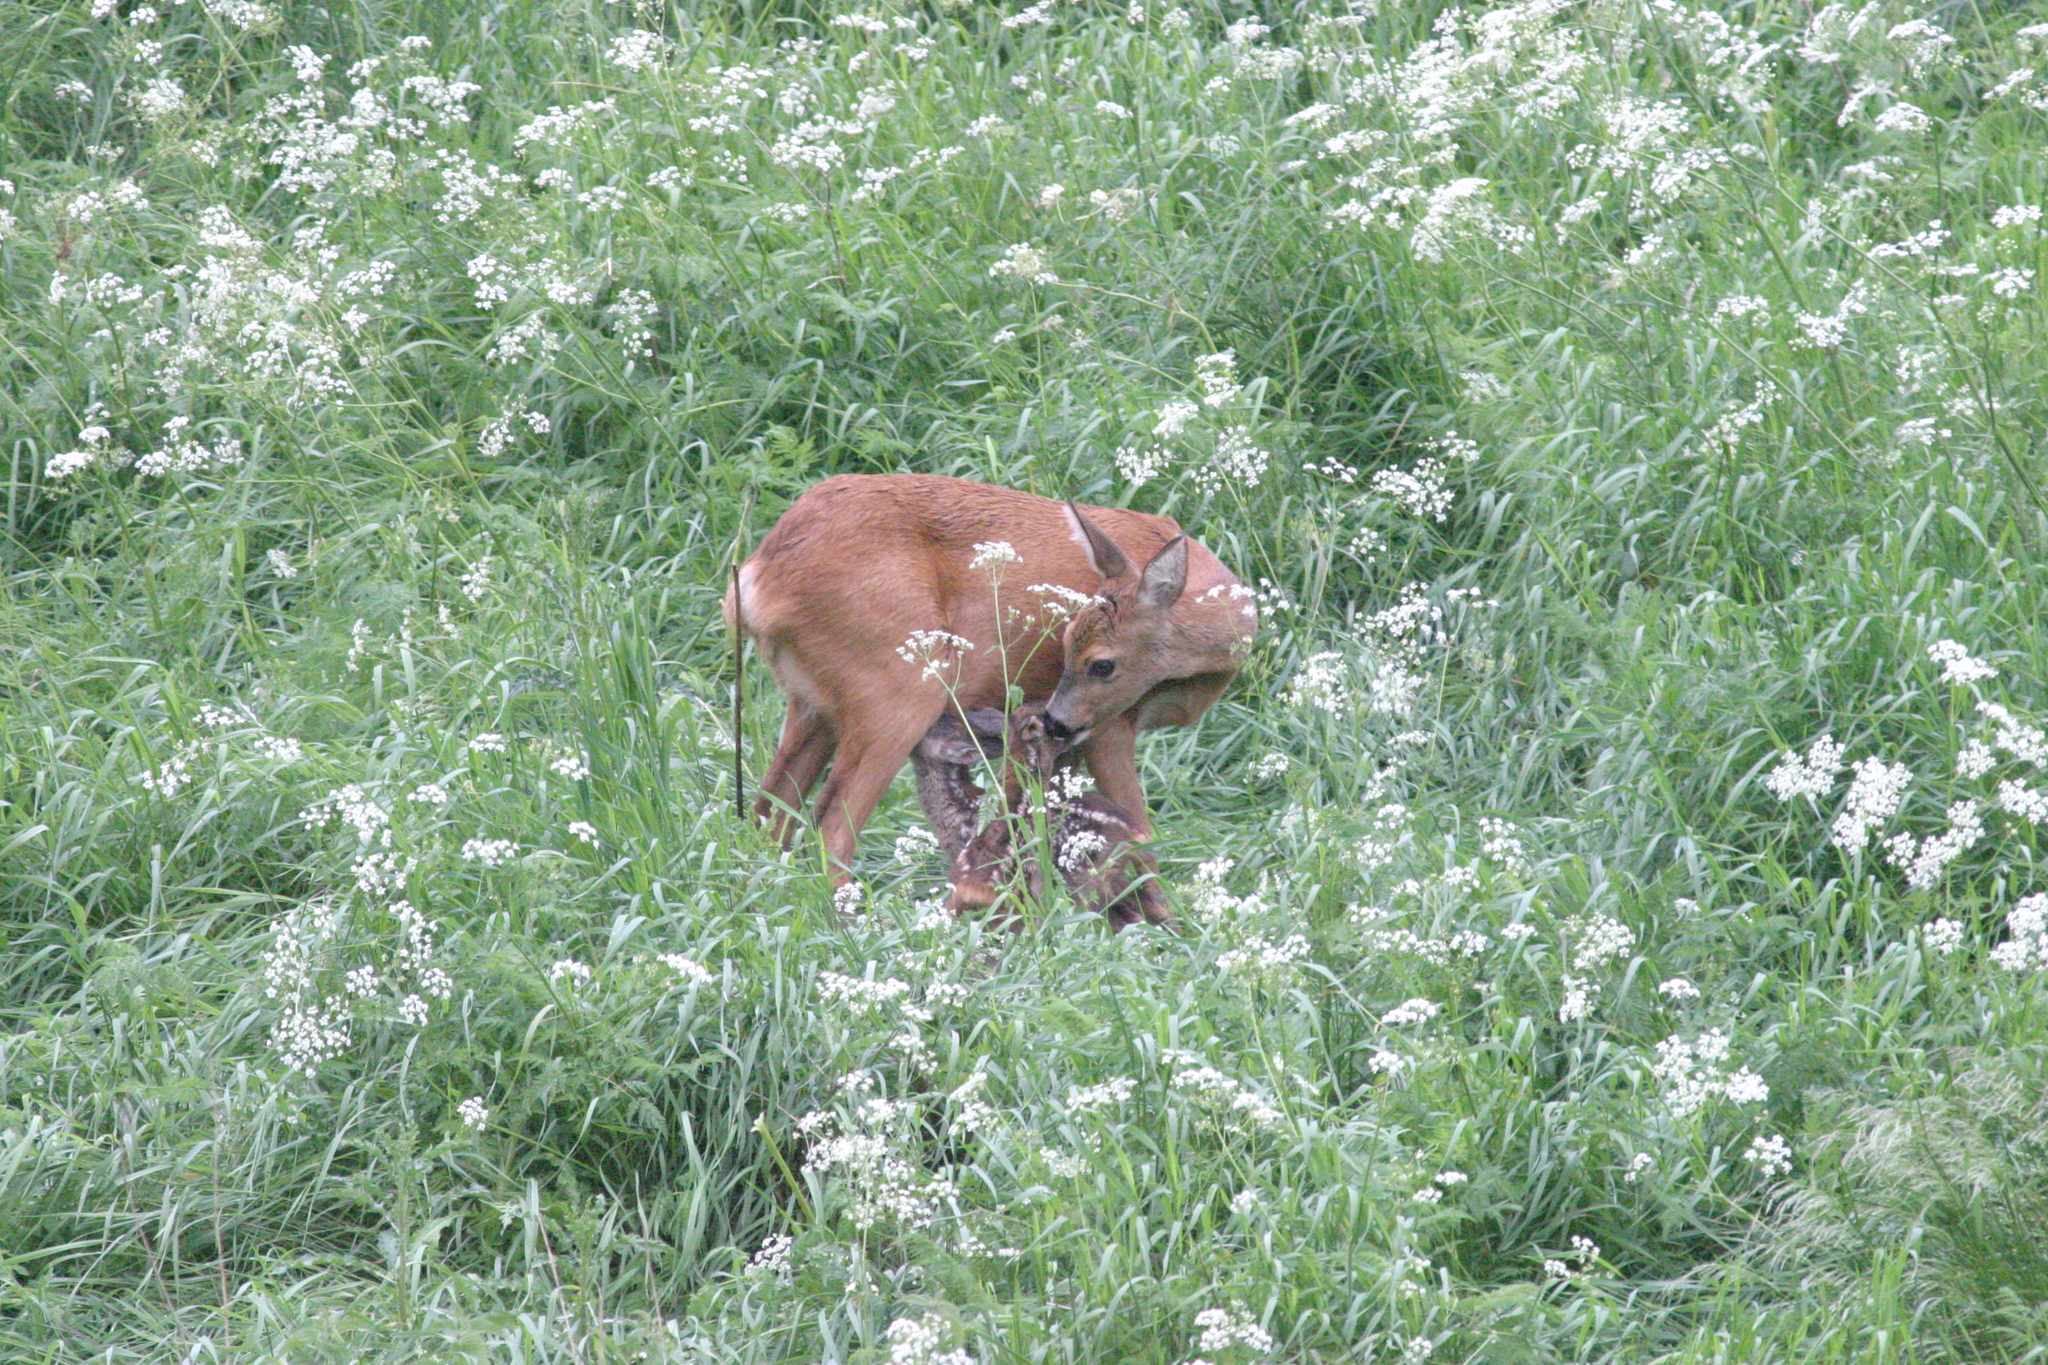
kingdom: Animalia
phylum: Chordata
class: Mammalia
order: Artiodactyla
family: Cervidae
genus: Capreolus
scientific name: Capreolus capreolus
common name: Western roe deer
